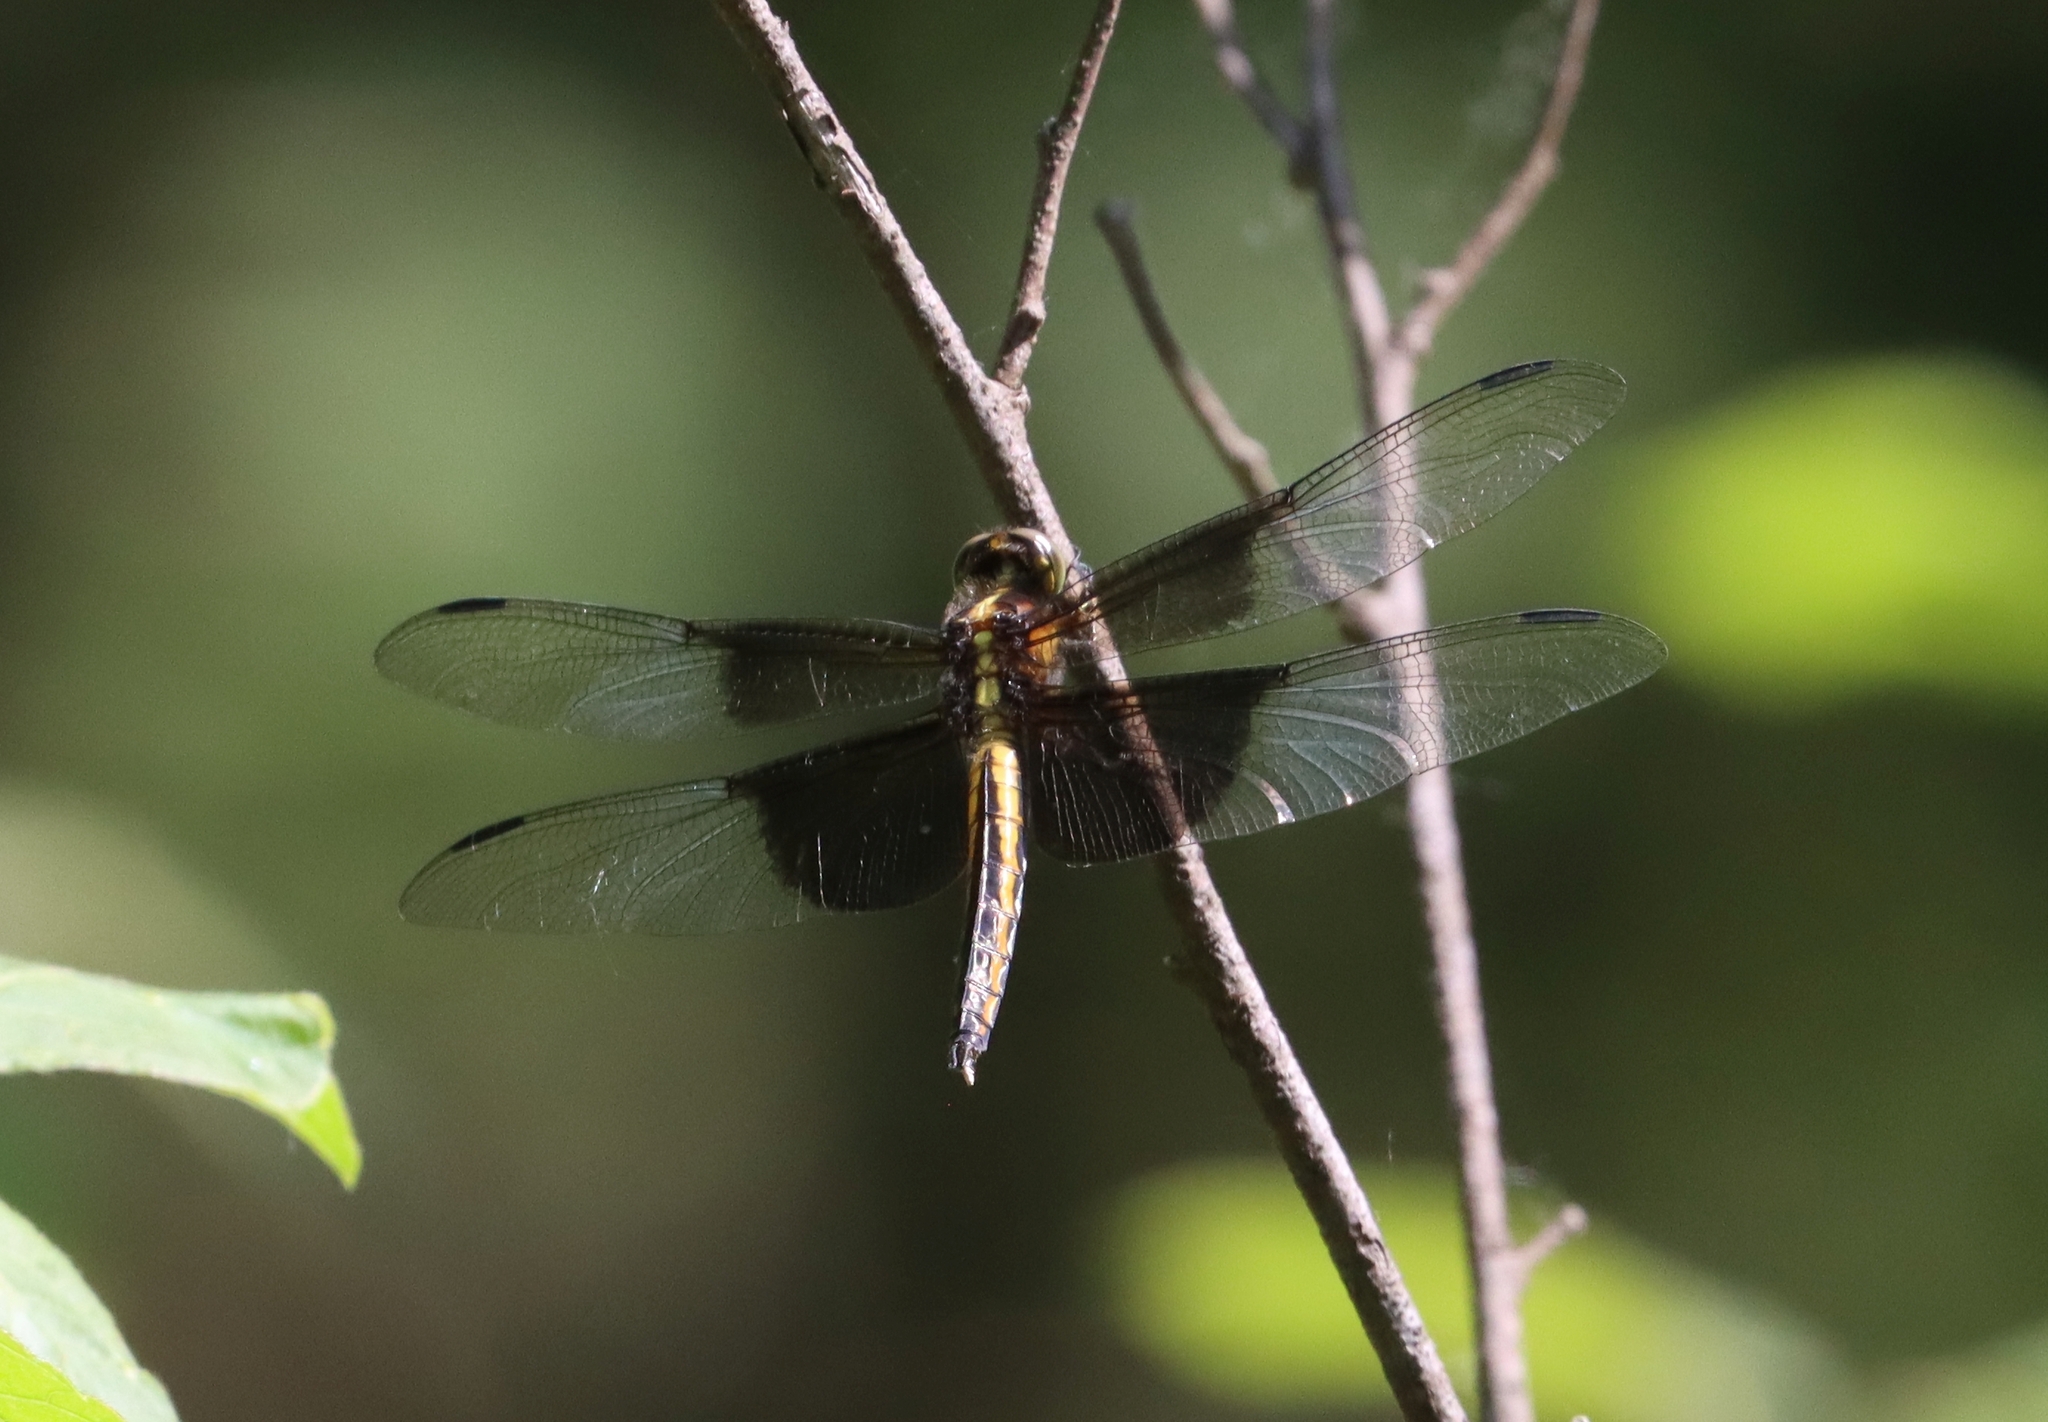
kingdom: Animalia
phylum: Arthropoda
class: Insecta
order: Odonata
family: Libellulidae
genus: Libellula
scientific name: Libellula luctuosa
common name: Widow skimmer
